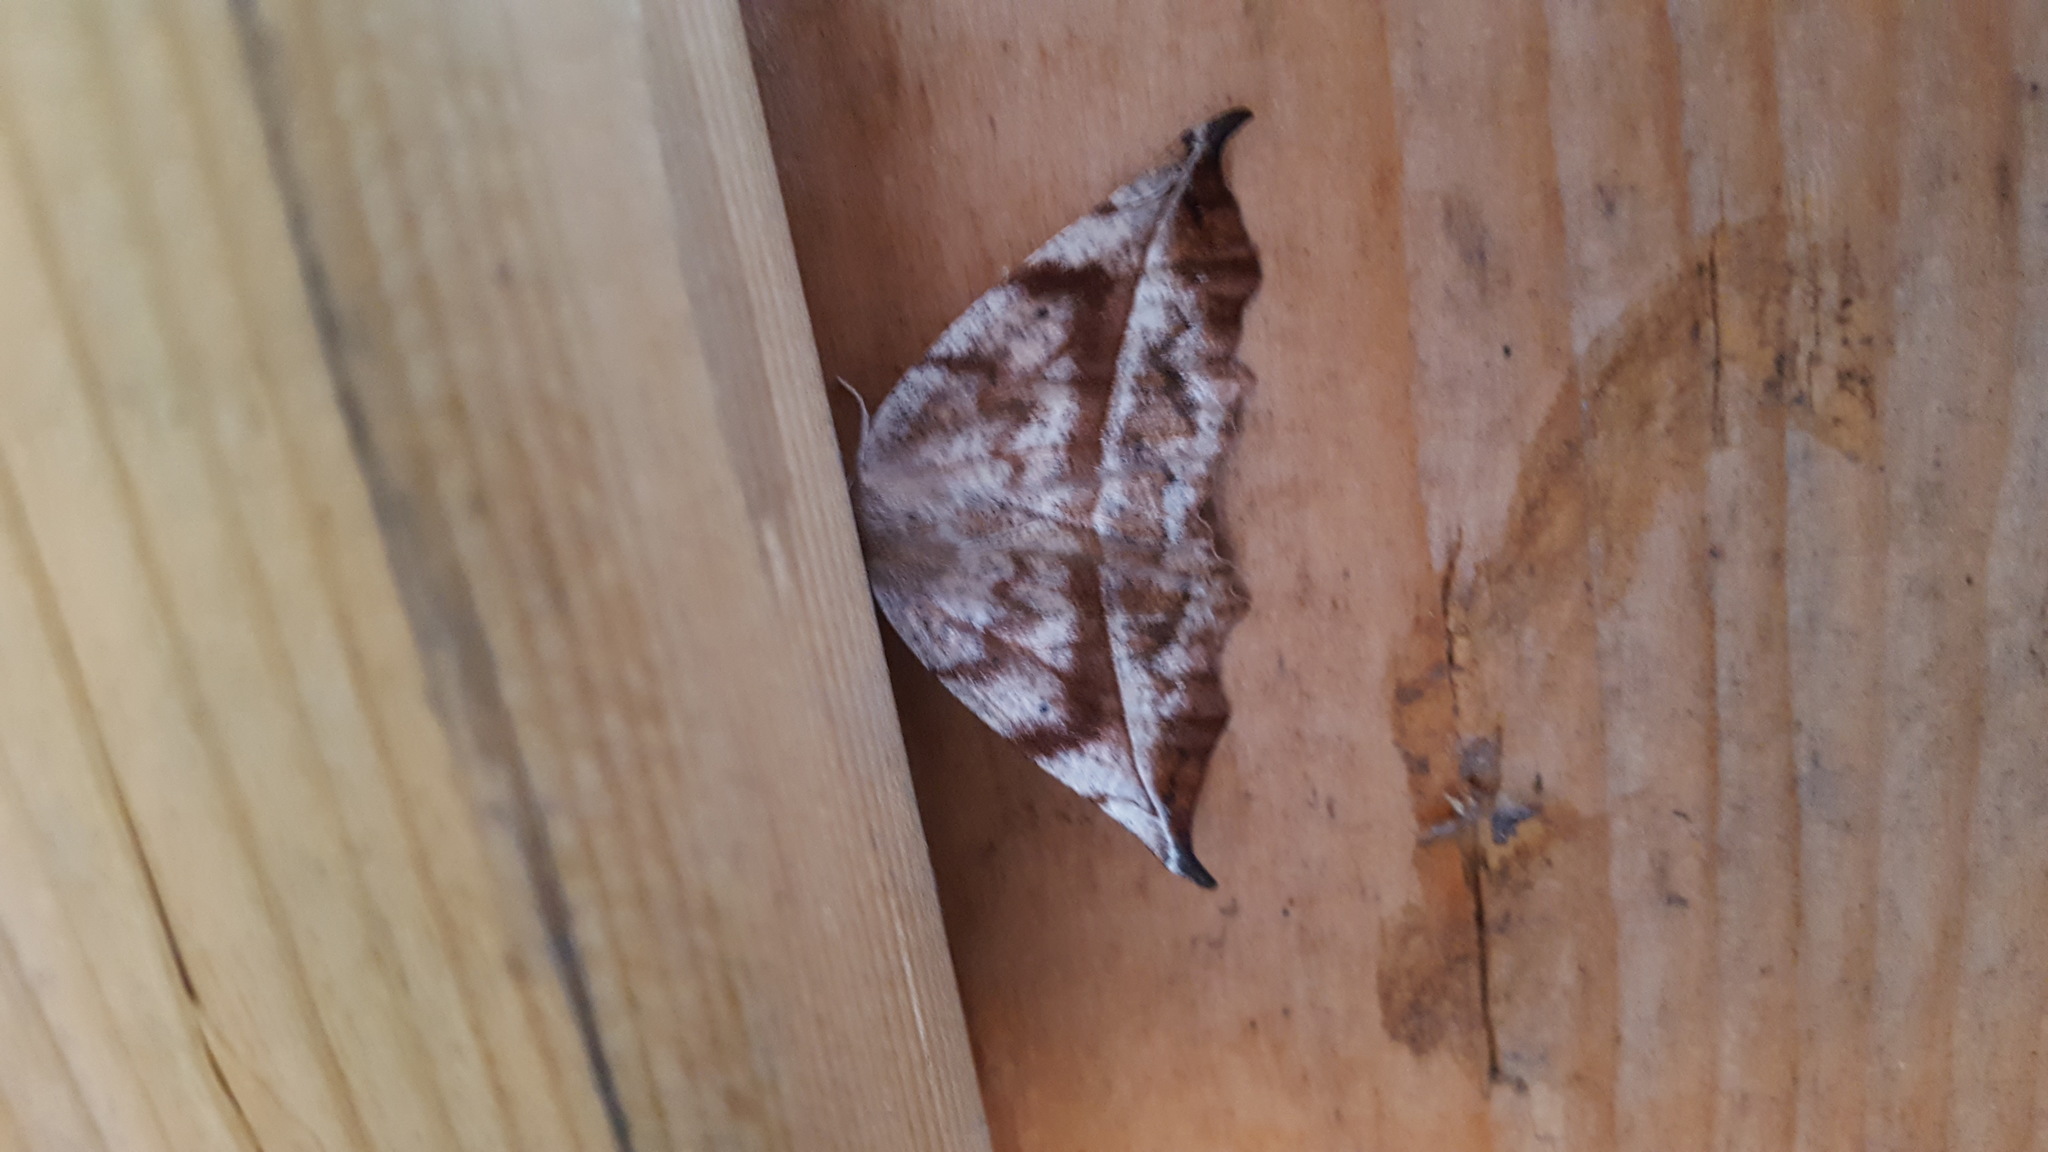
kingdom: Animalia
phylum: Arthropoda
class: Insecta
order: Lepidoptera
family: Geometridae
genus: Eutrapela
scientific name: Eutrapela clemataria
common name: Curved-toothed geometer
